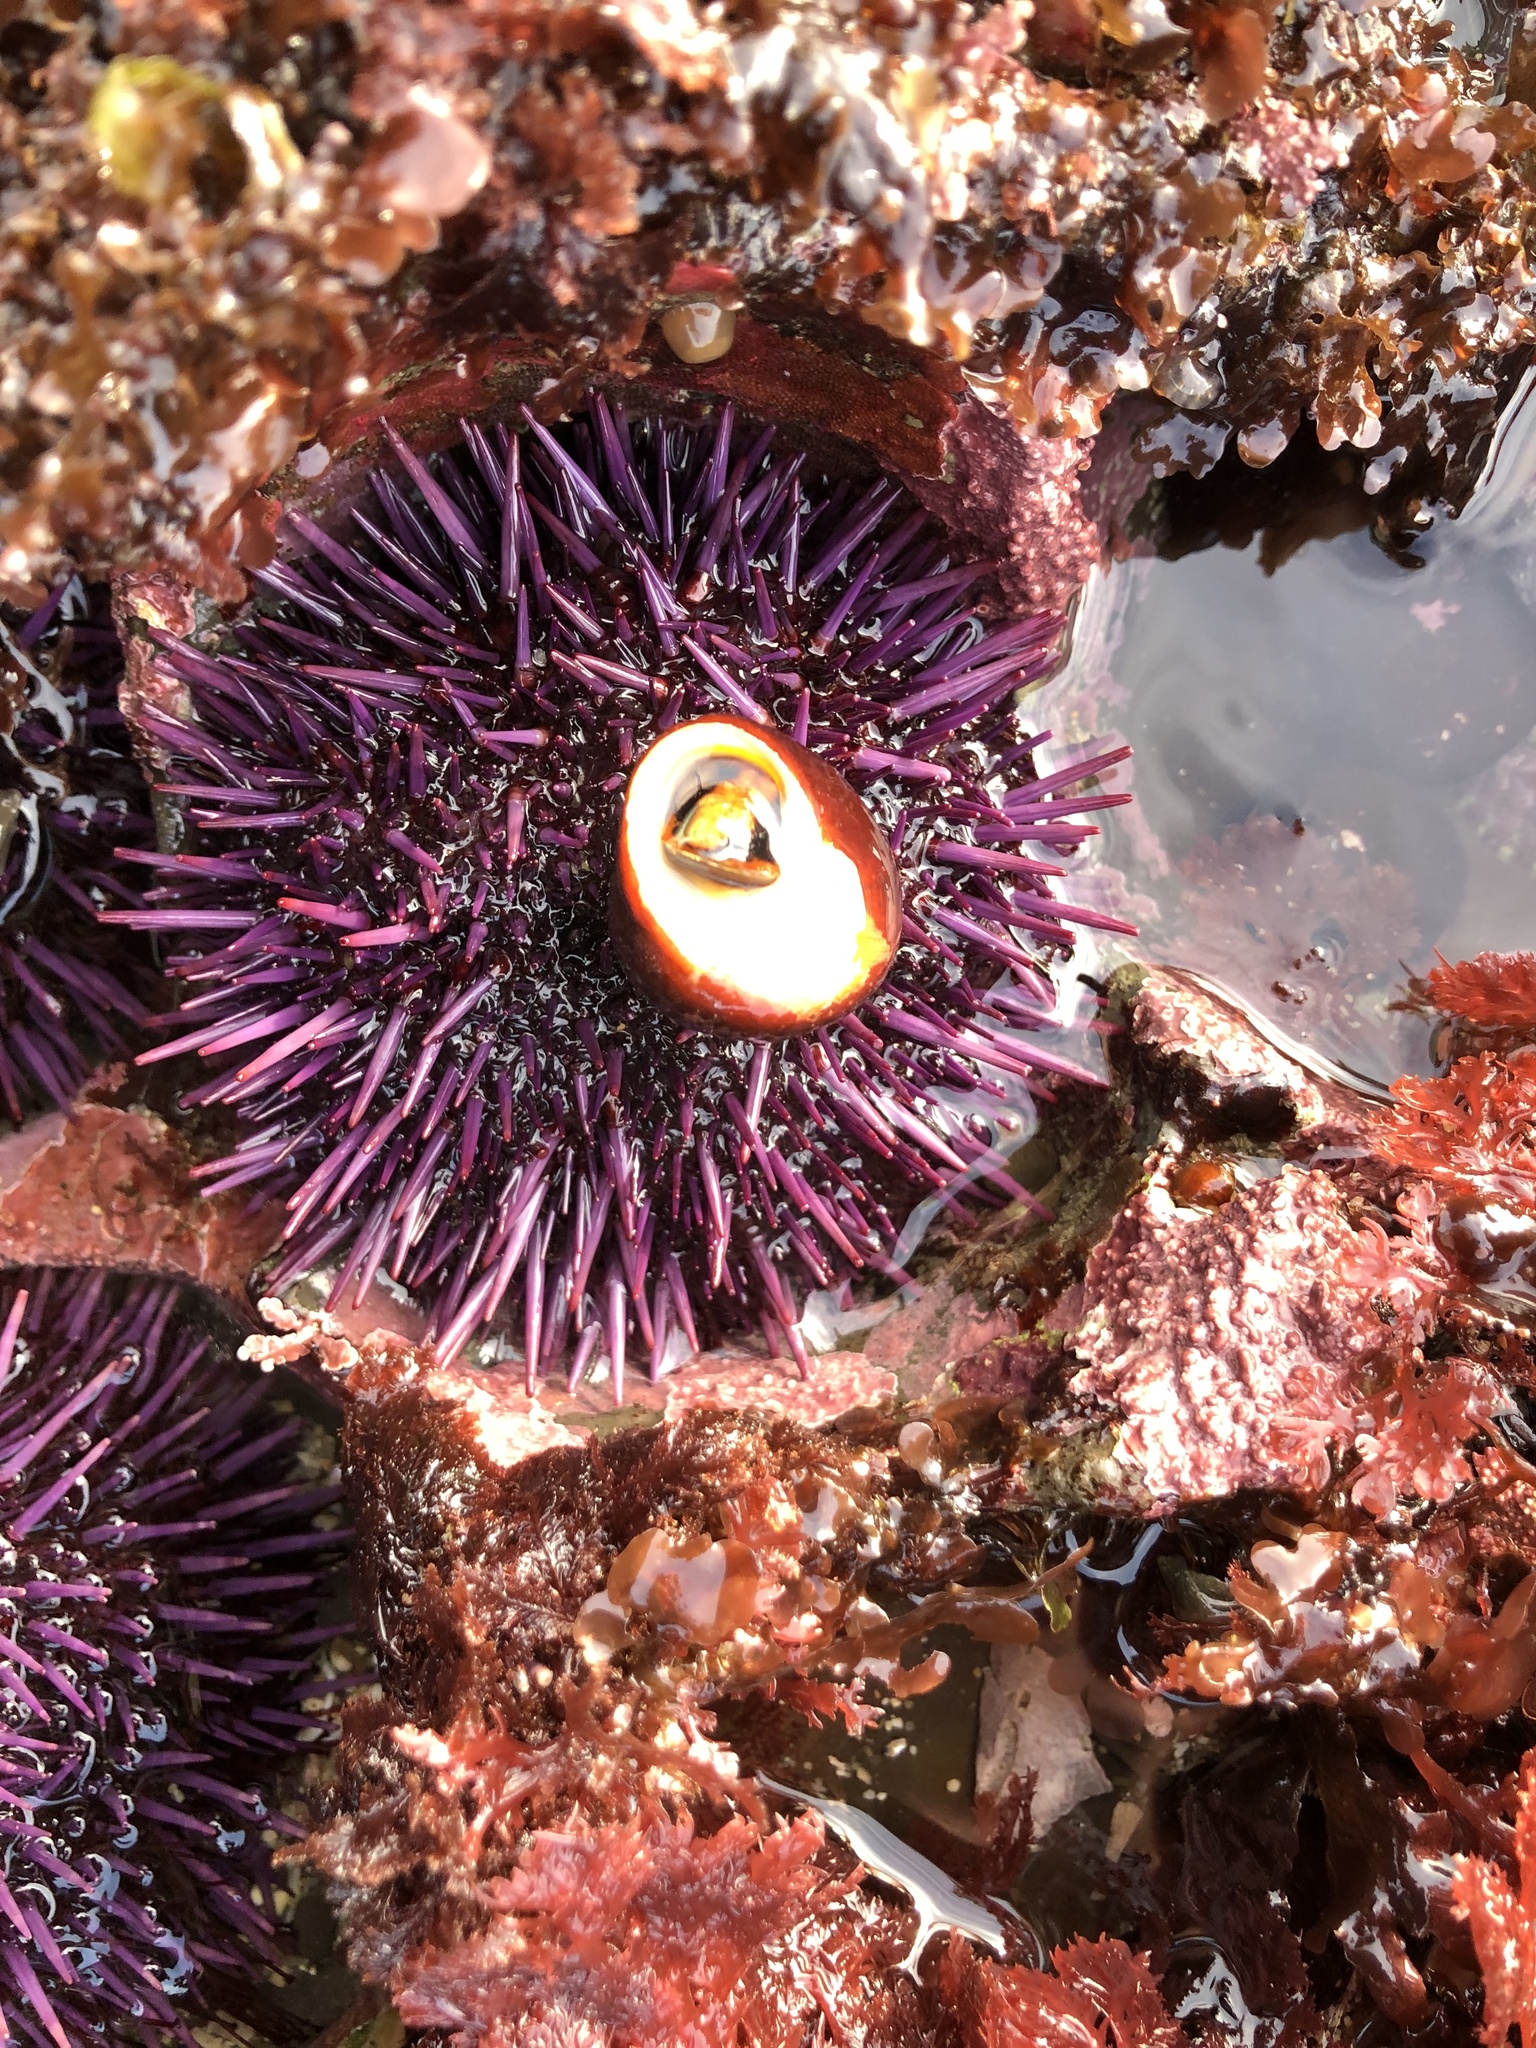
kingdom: Animalia
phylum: Echinodermata
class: Echinoidea
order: Camarodonta
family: Strongylocentrotidae
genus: Strongylocentrotus
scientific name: Strongylocentrotus purpuratus
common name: Purple sea urchin
